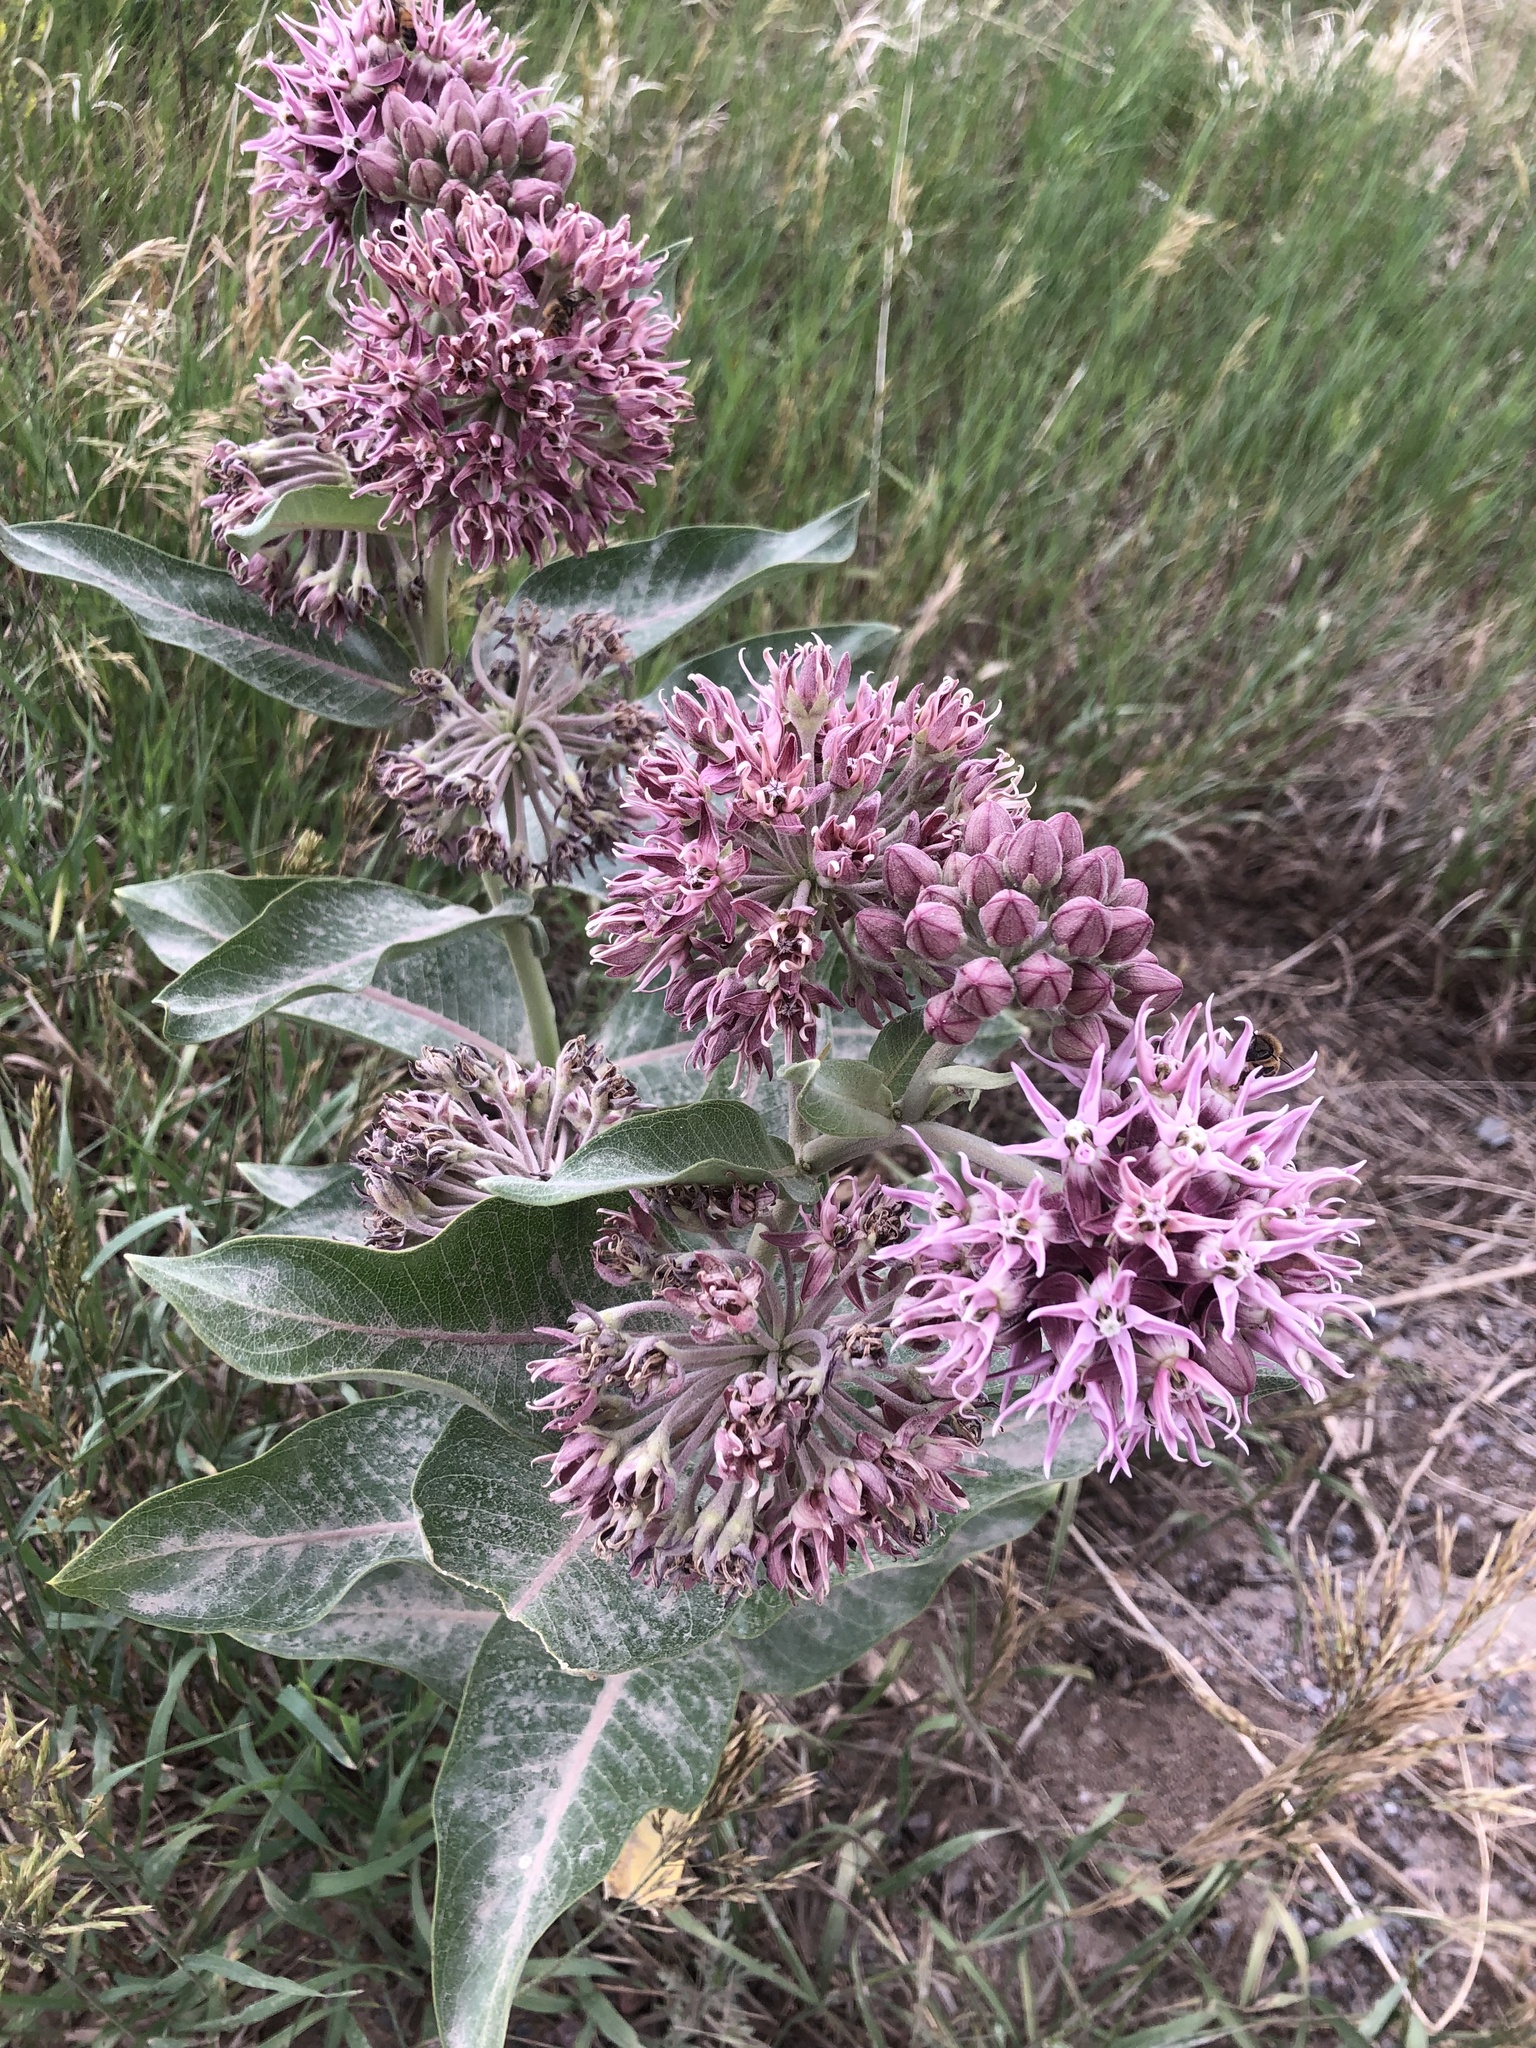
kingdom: Plantae
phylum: Tracheophyta
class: Magnoliopsida
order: Gentianales
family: Apocynaceae
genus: Asclepias
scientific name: Asclepias speciosa
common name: Showy milkweed
